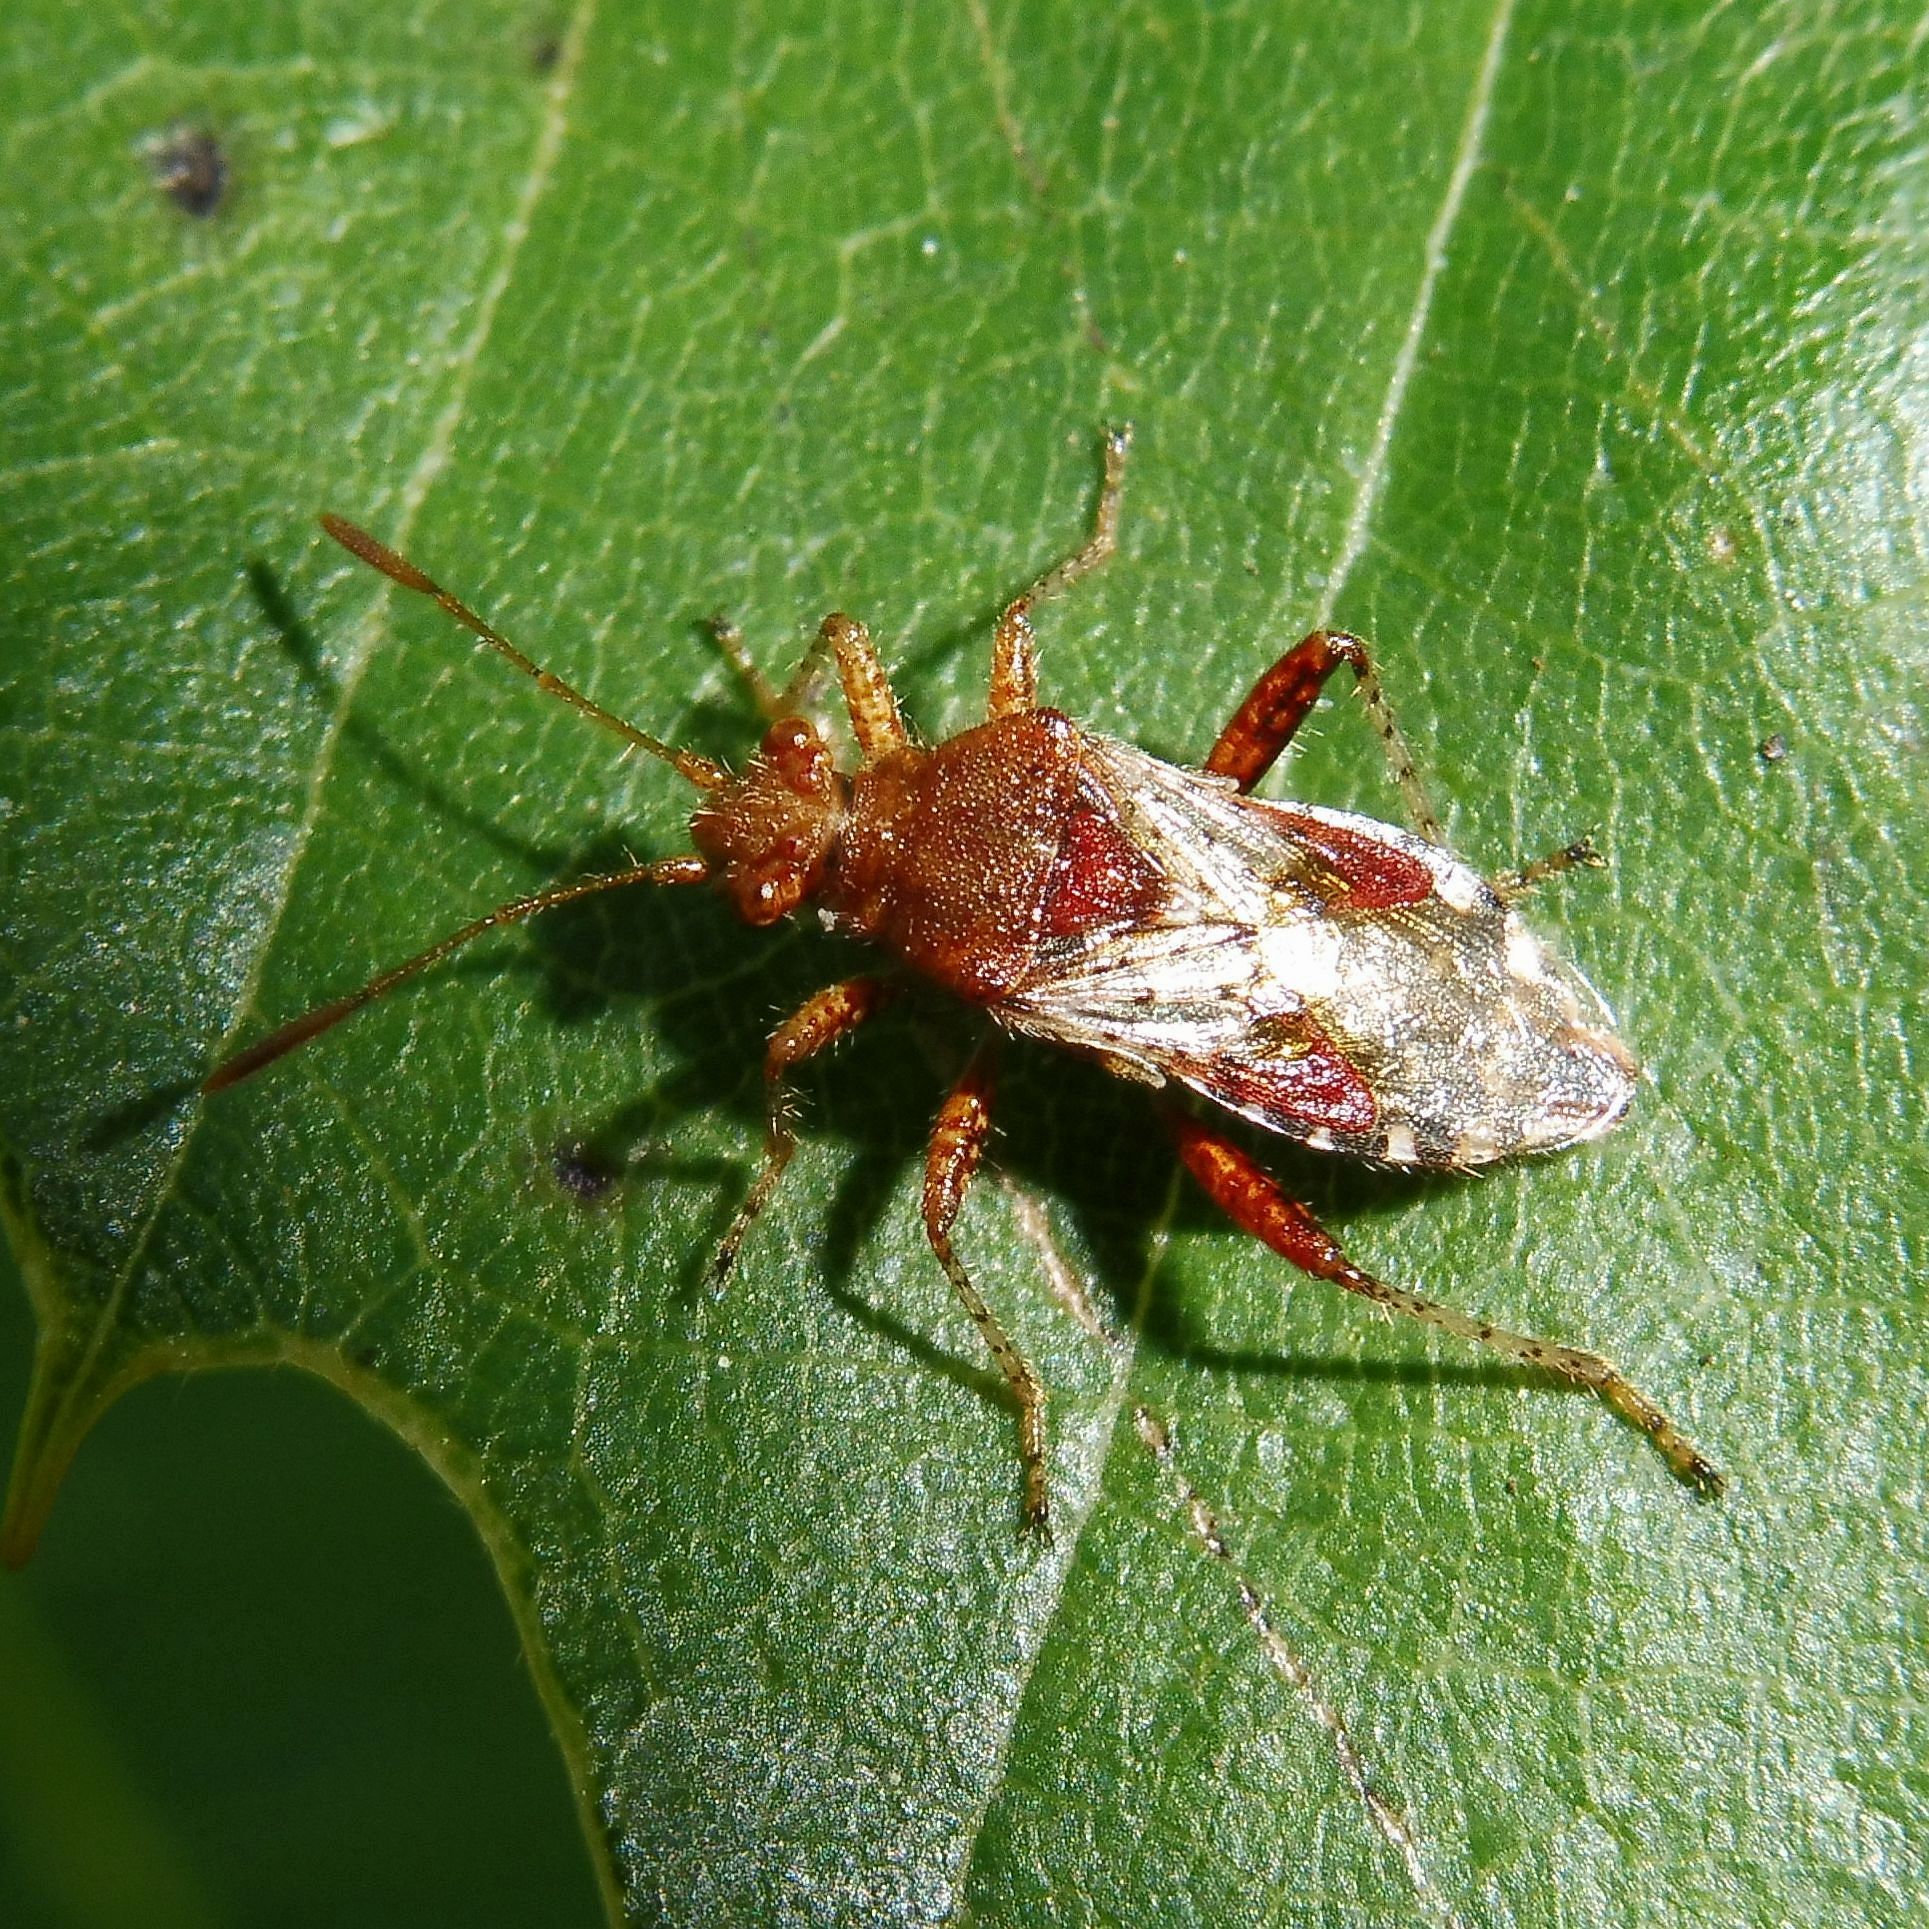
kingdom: Animalia
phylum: Arthropoda
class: Insecta
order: Hemiptera
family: Rhopalidae
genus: Rhopalus
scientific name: Rhopalus subrufus
